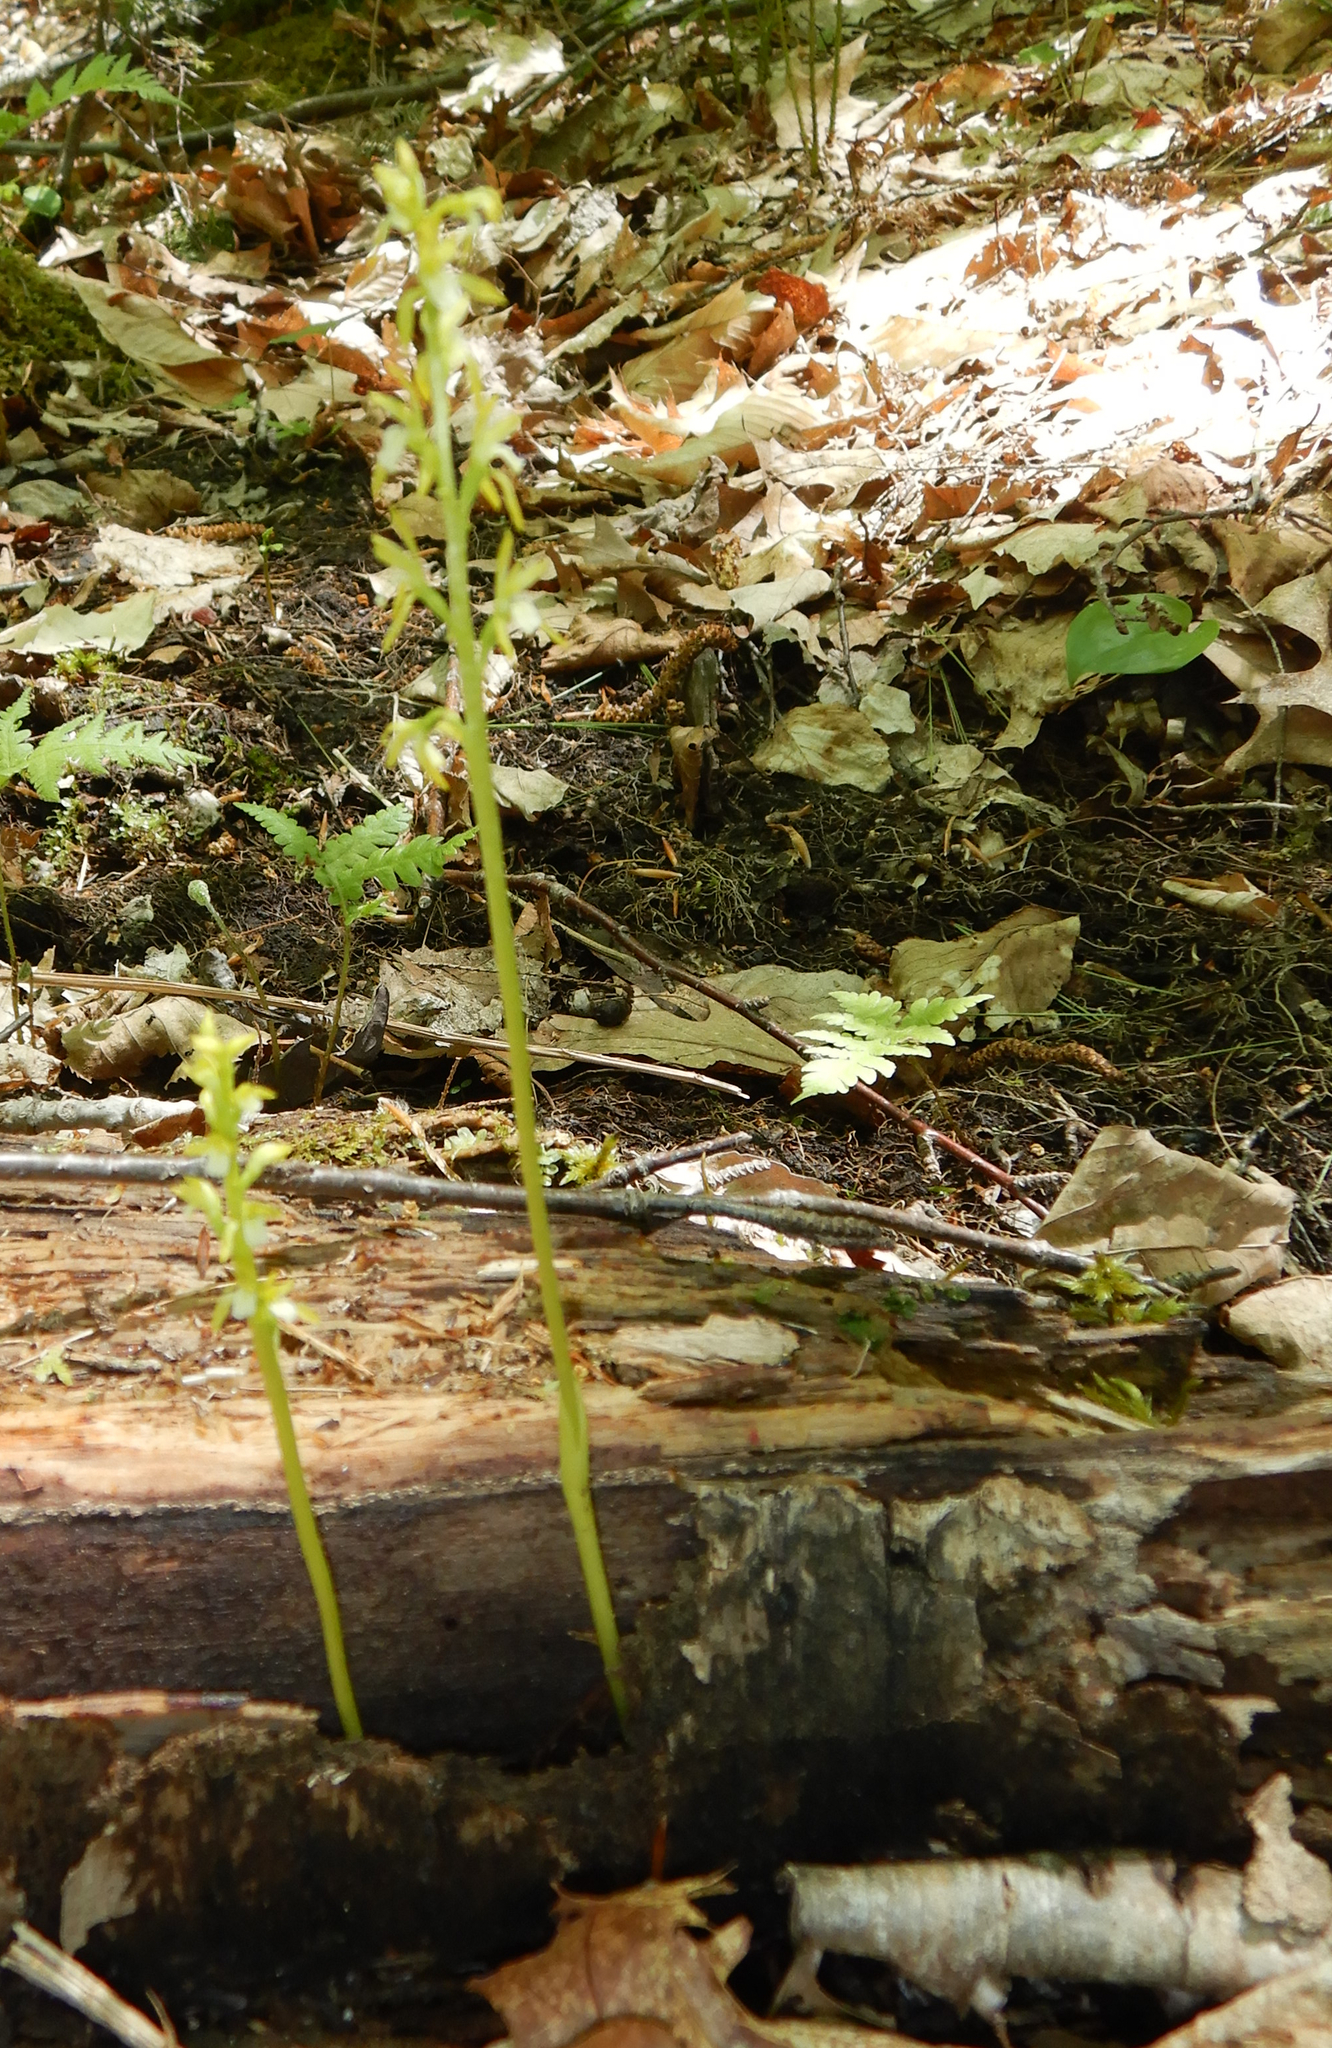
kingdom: Plantae
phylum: Tracheophyta
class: Liliopsida
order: Asparagales
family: Orchidaceae
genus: Corallorhiza
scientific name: Corallorhiza trifida
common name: Yellow coralroot
